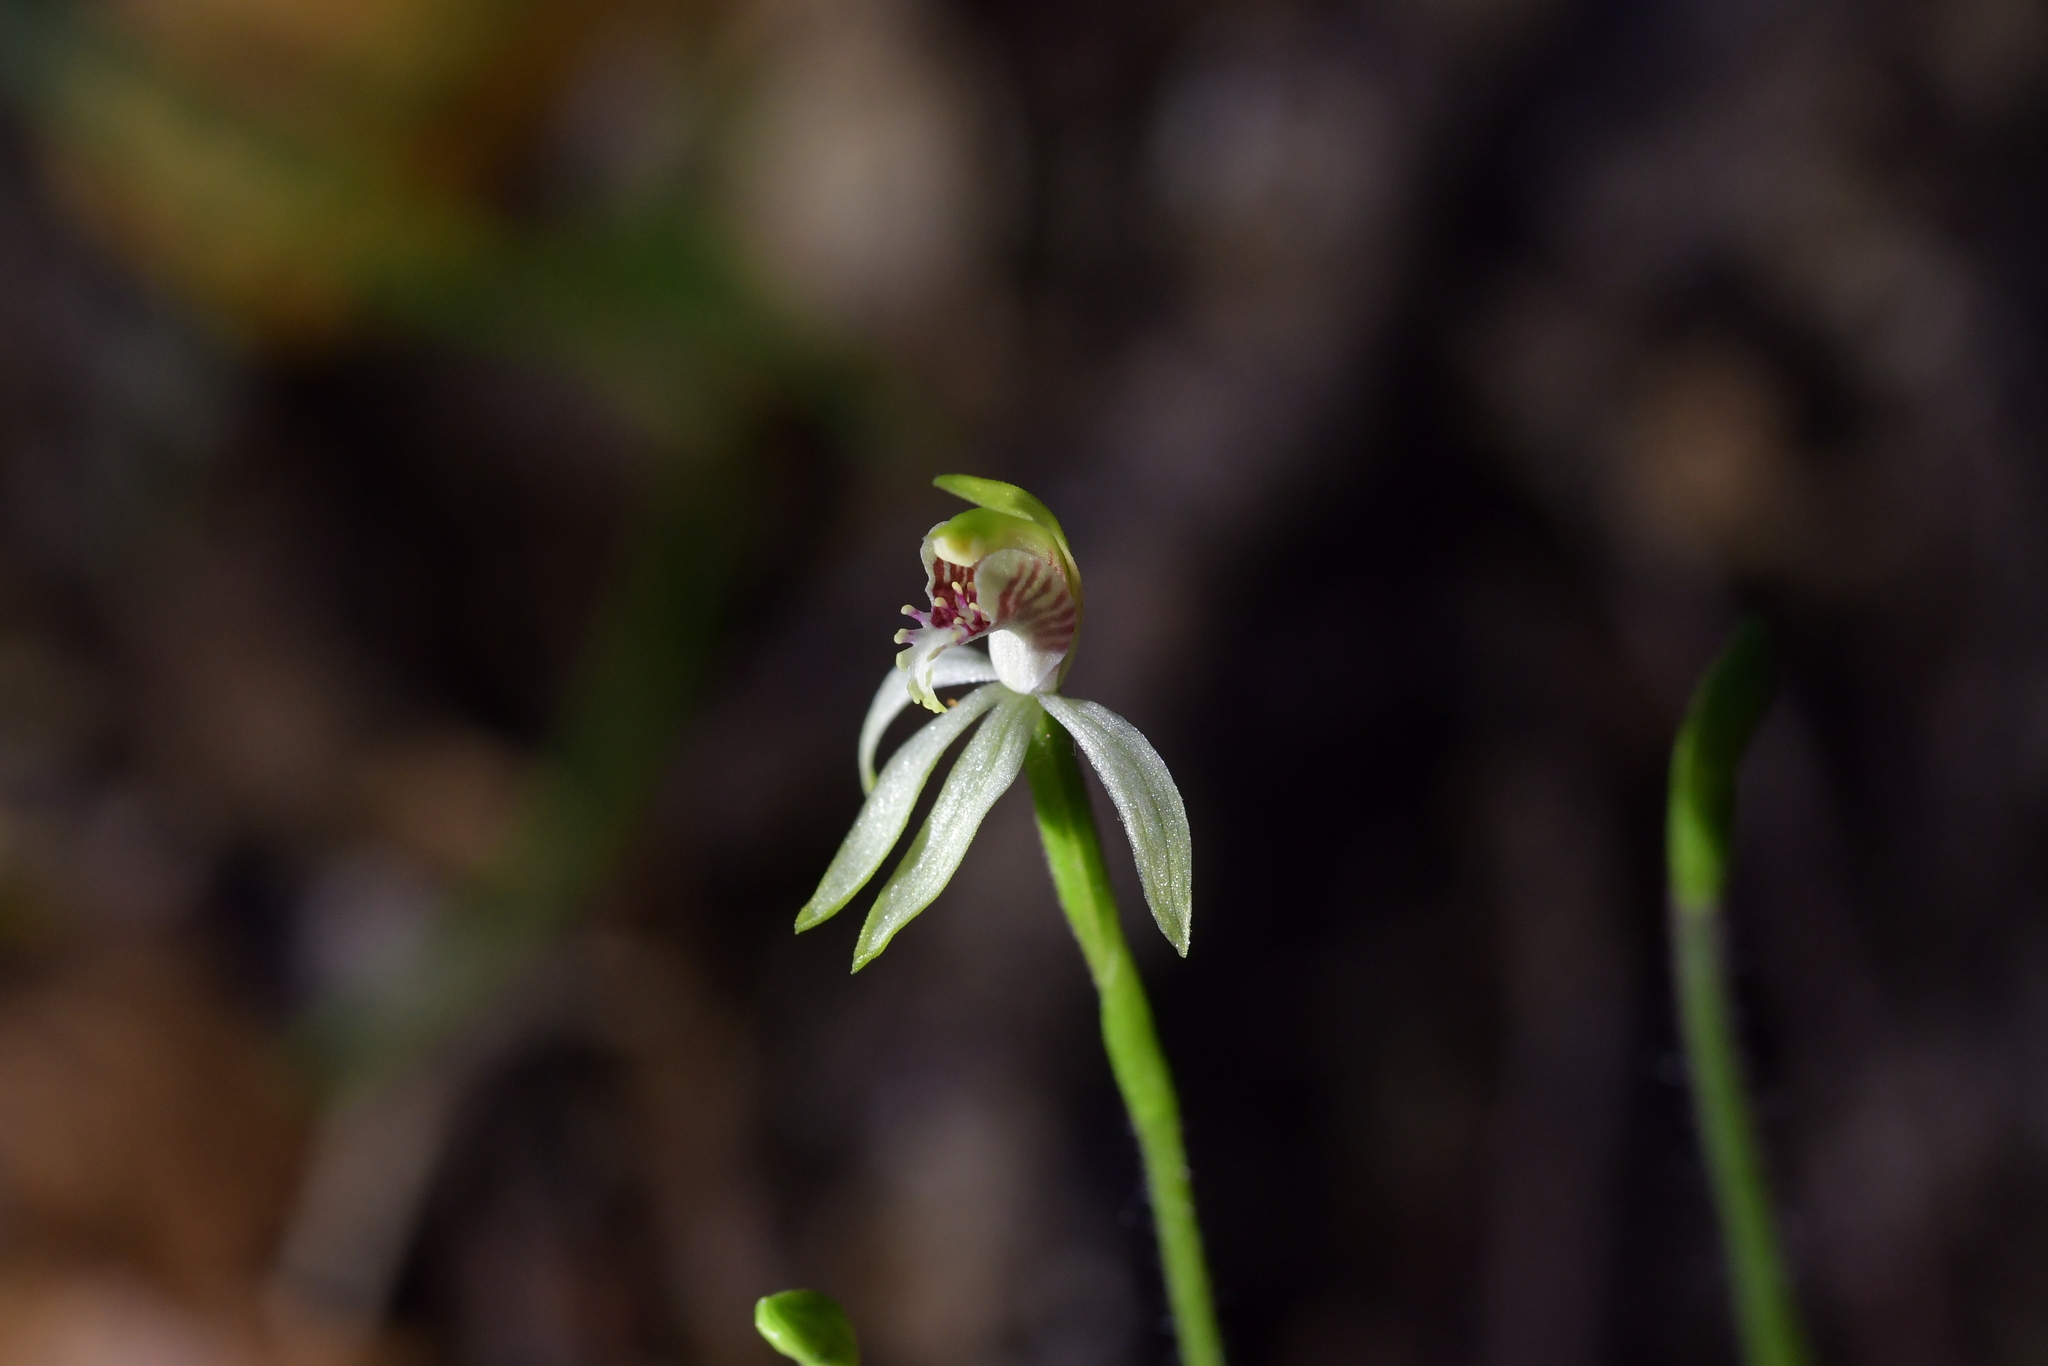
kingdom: Plantae
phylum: Tracheophyta
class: Liliopsida
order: Asparagales
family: Orchidaceae
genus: Caladenia
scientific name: Caladenia chlorostyla
